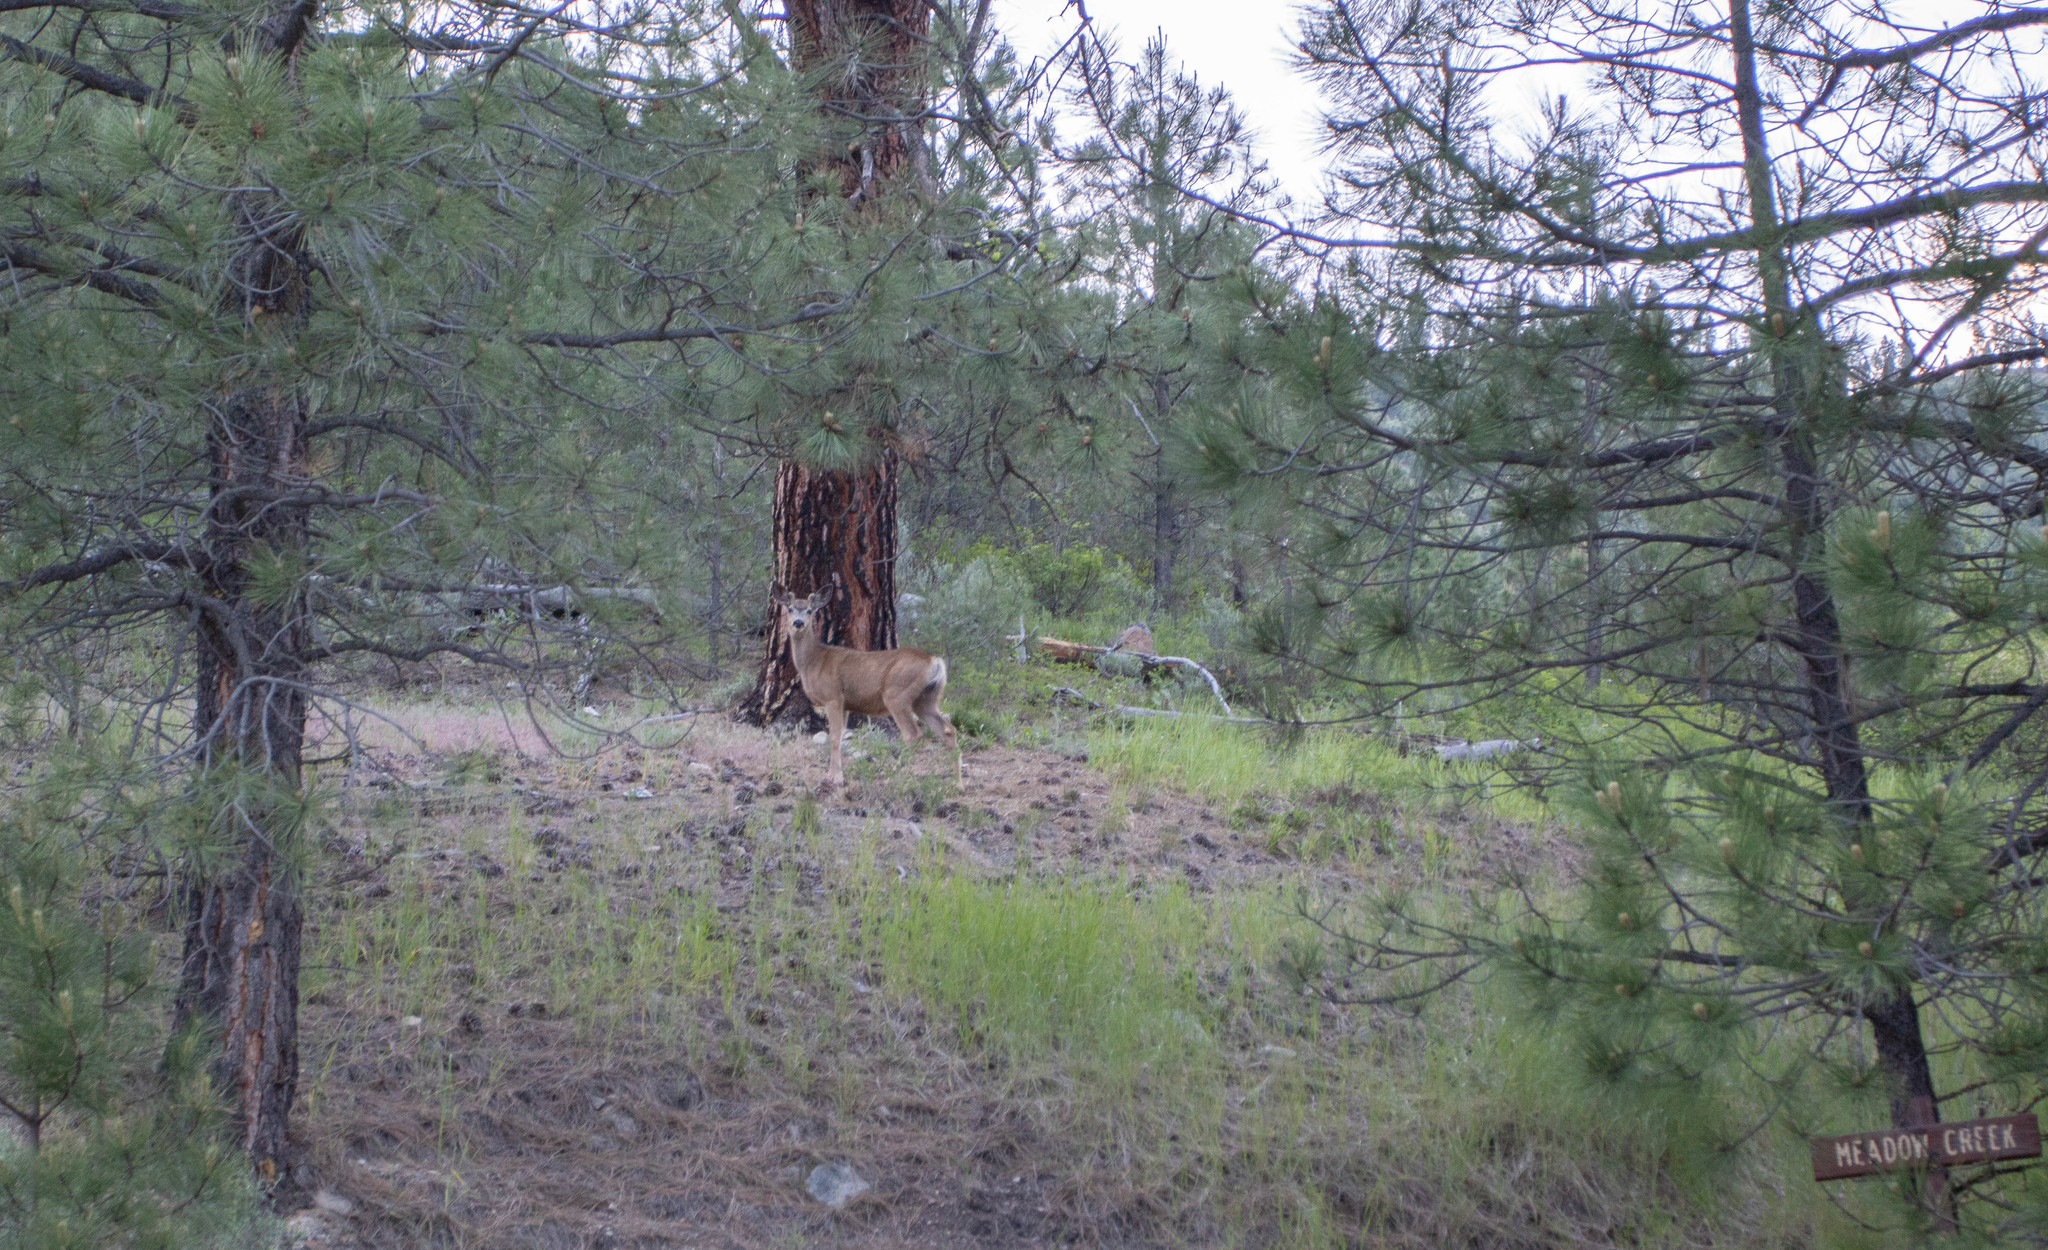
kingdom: Animalia
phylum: Chordata
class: Mammalia
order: Artiodactyla
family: Cervidae
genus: Odocoileus
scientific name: Odocoileus hemionus
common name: Mule deer
